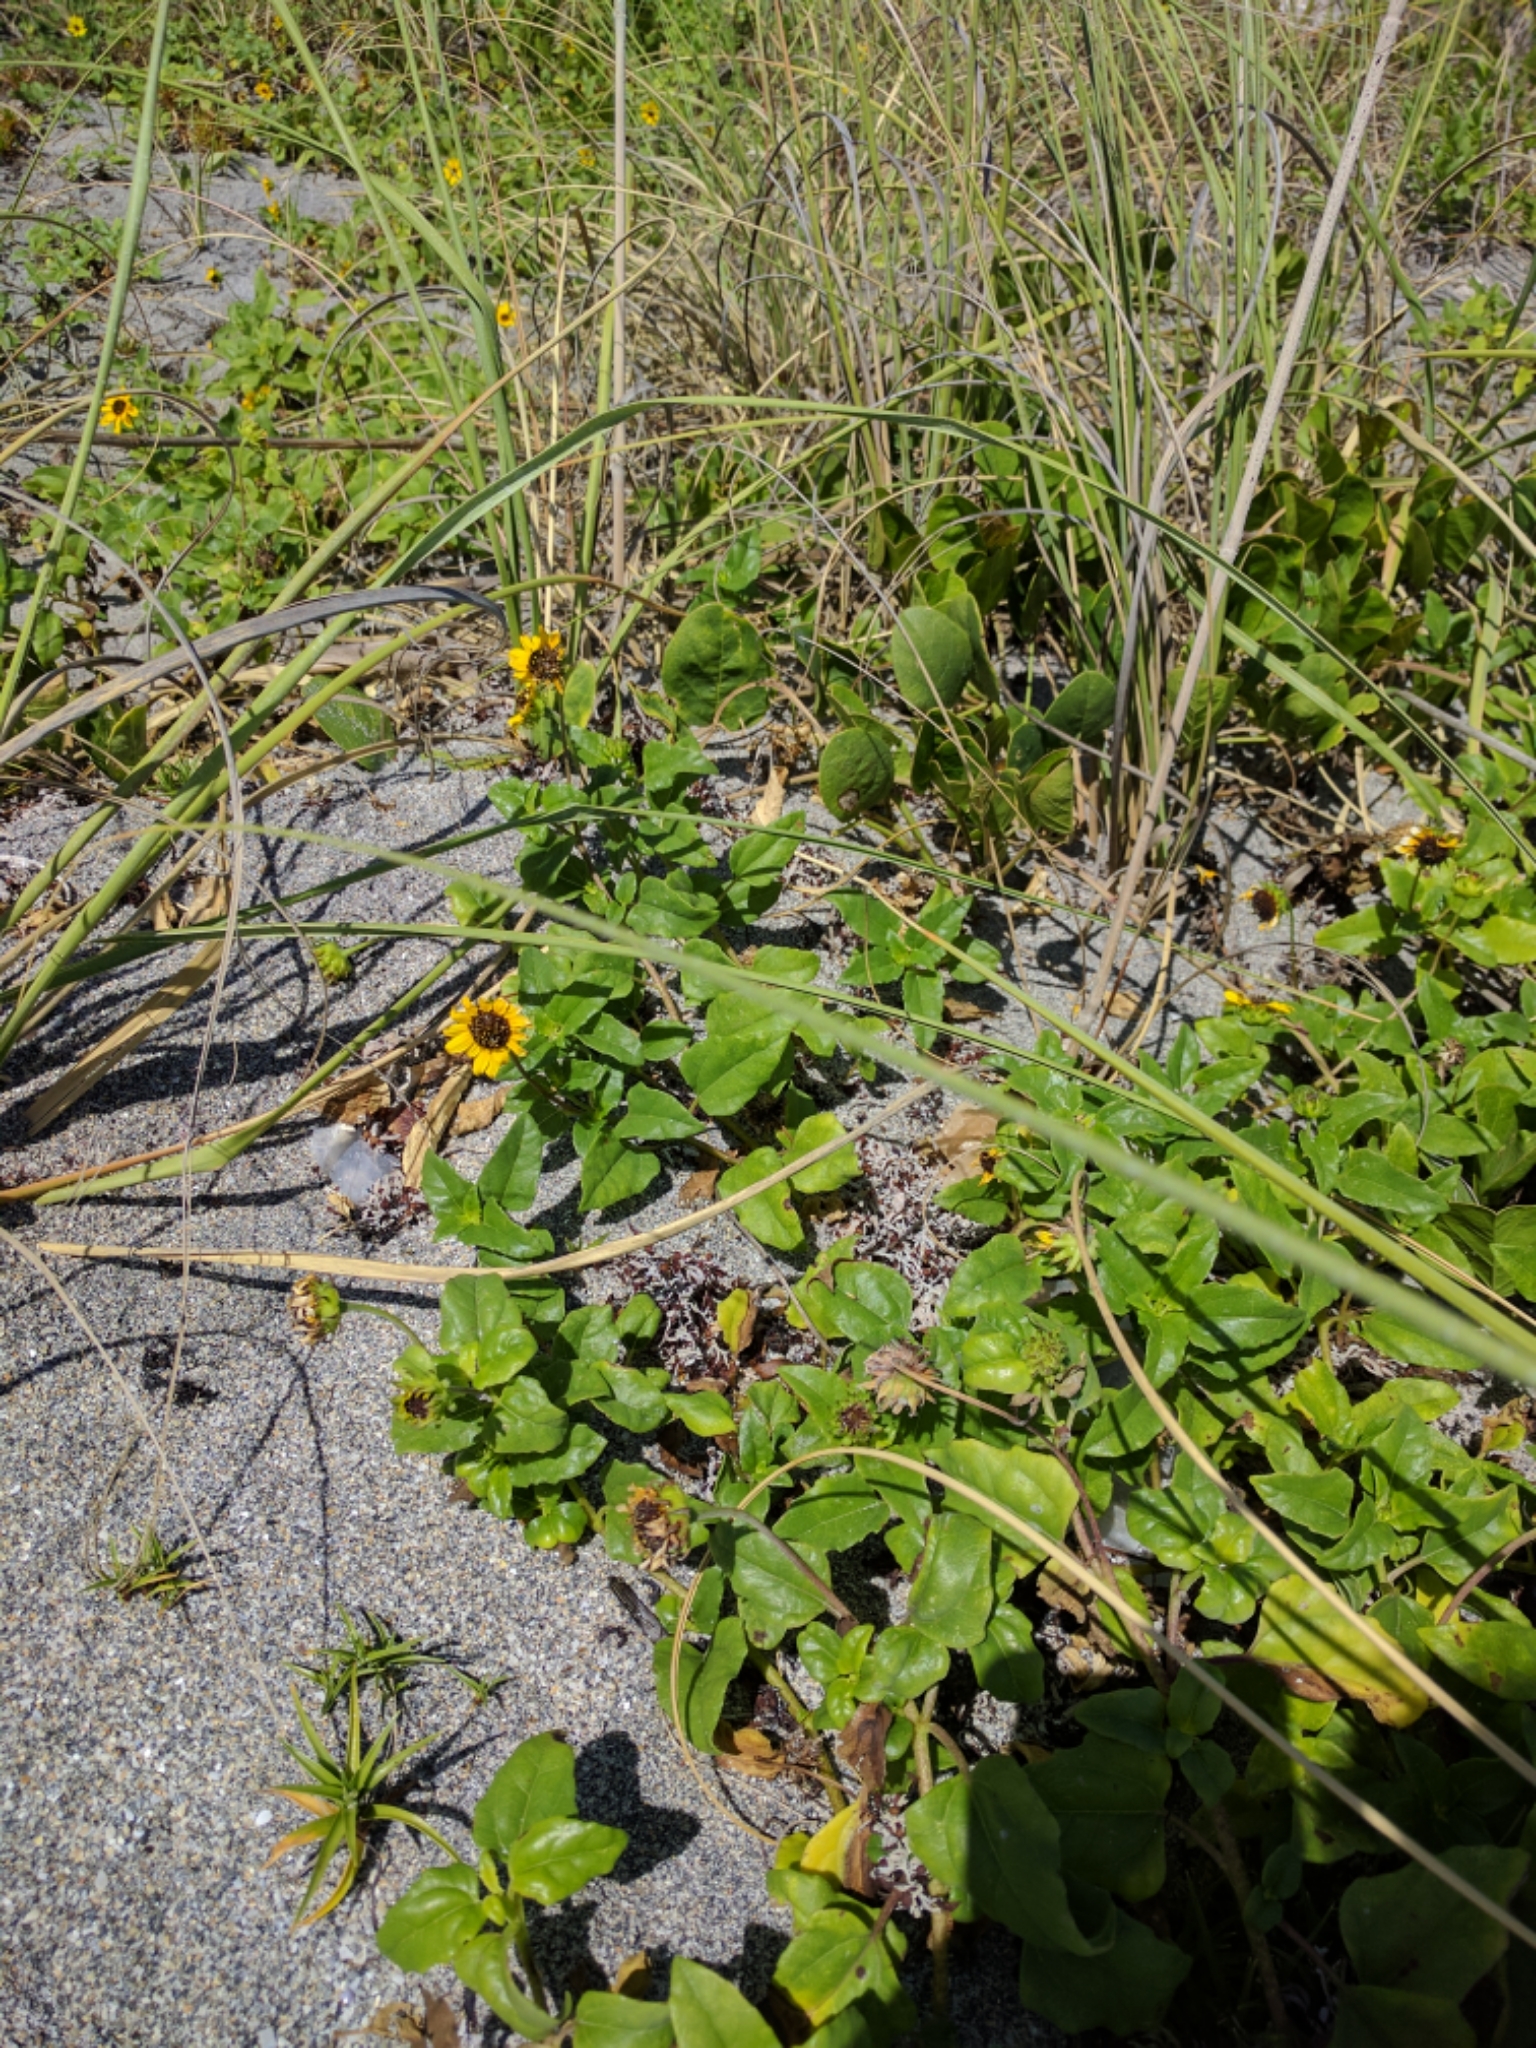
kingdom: Plantae
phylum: Tracheophyta
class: Magnoliopsida
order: Asterales
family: Asteraceae
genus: Helianthus
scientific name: Helianthus debilis
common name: Weak sunflower
